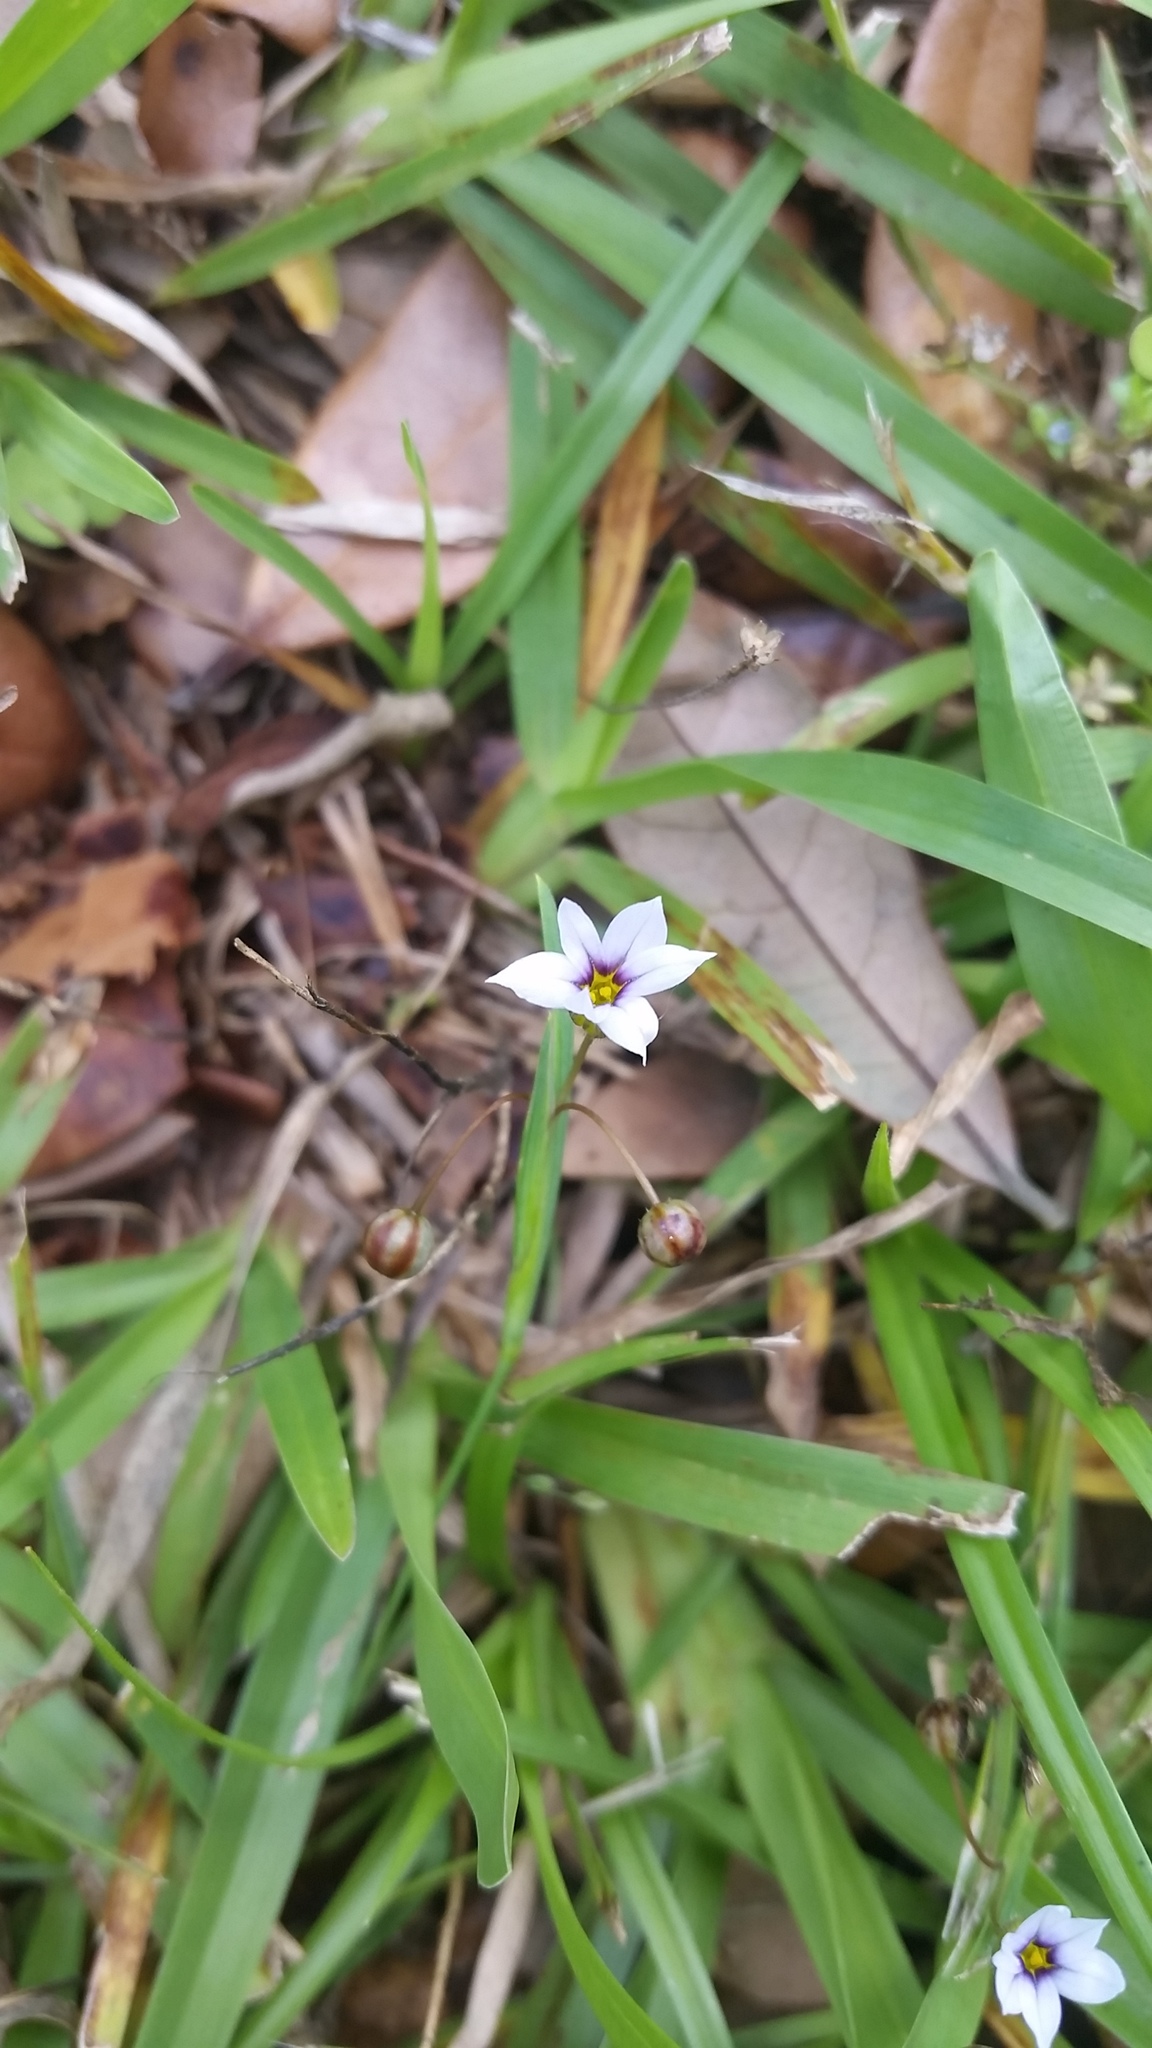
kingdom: Plantae
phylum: Tracheophyta
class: Liliopsida
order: Asparagales
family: Iridaceae
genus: Sisyrinchium
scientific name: Sisyrinchium micranthum
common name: Bermuda pigroot
